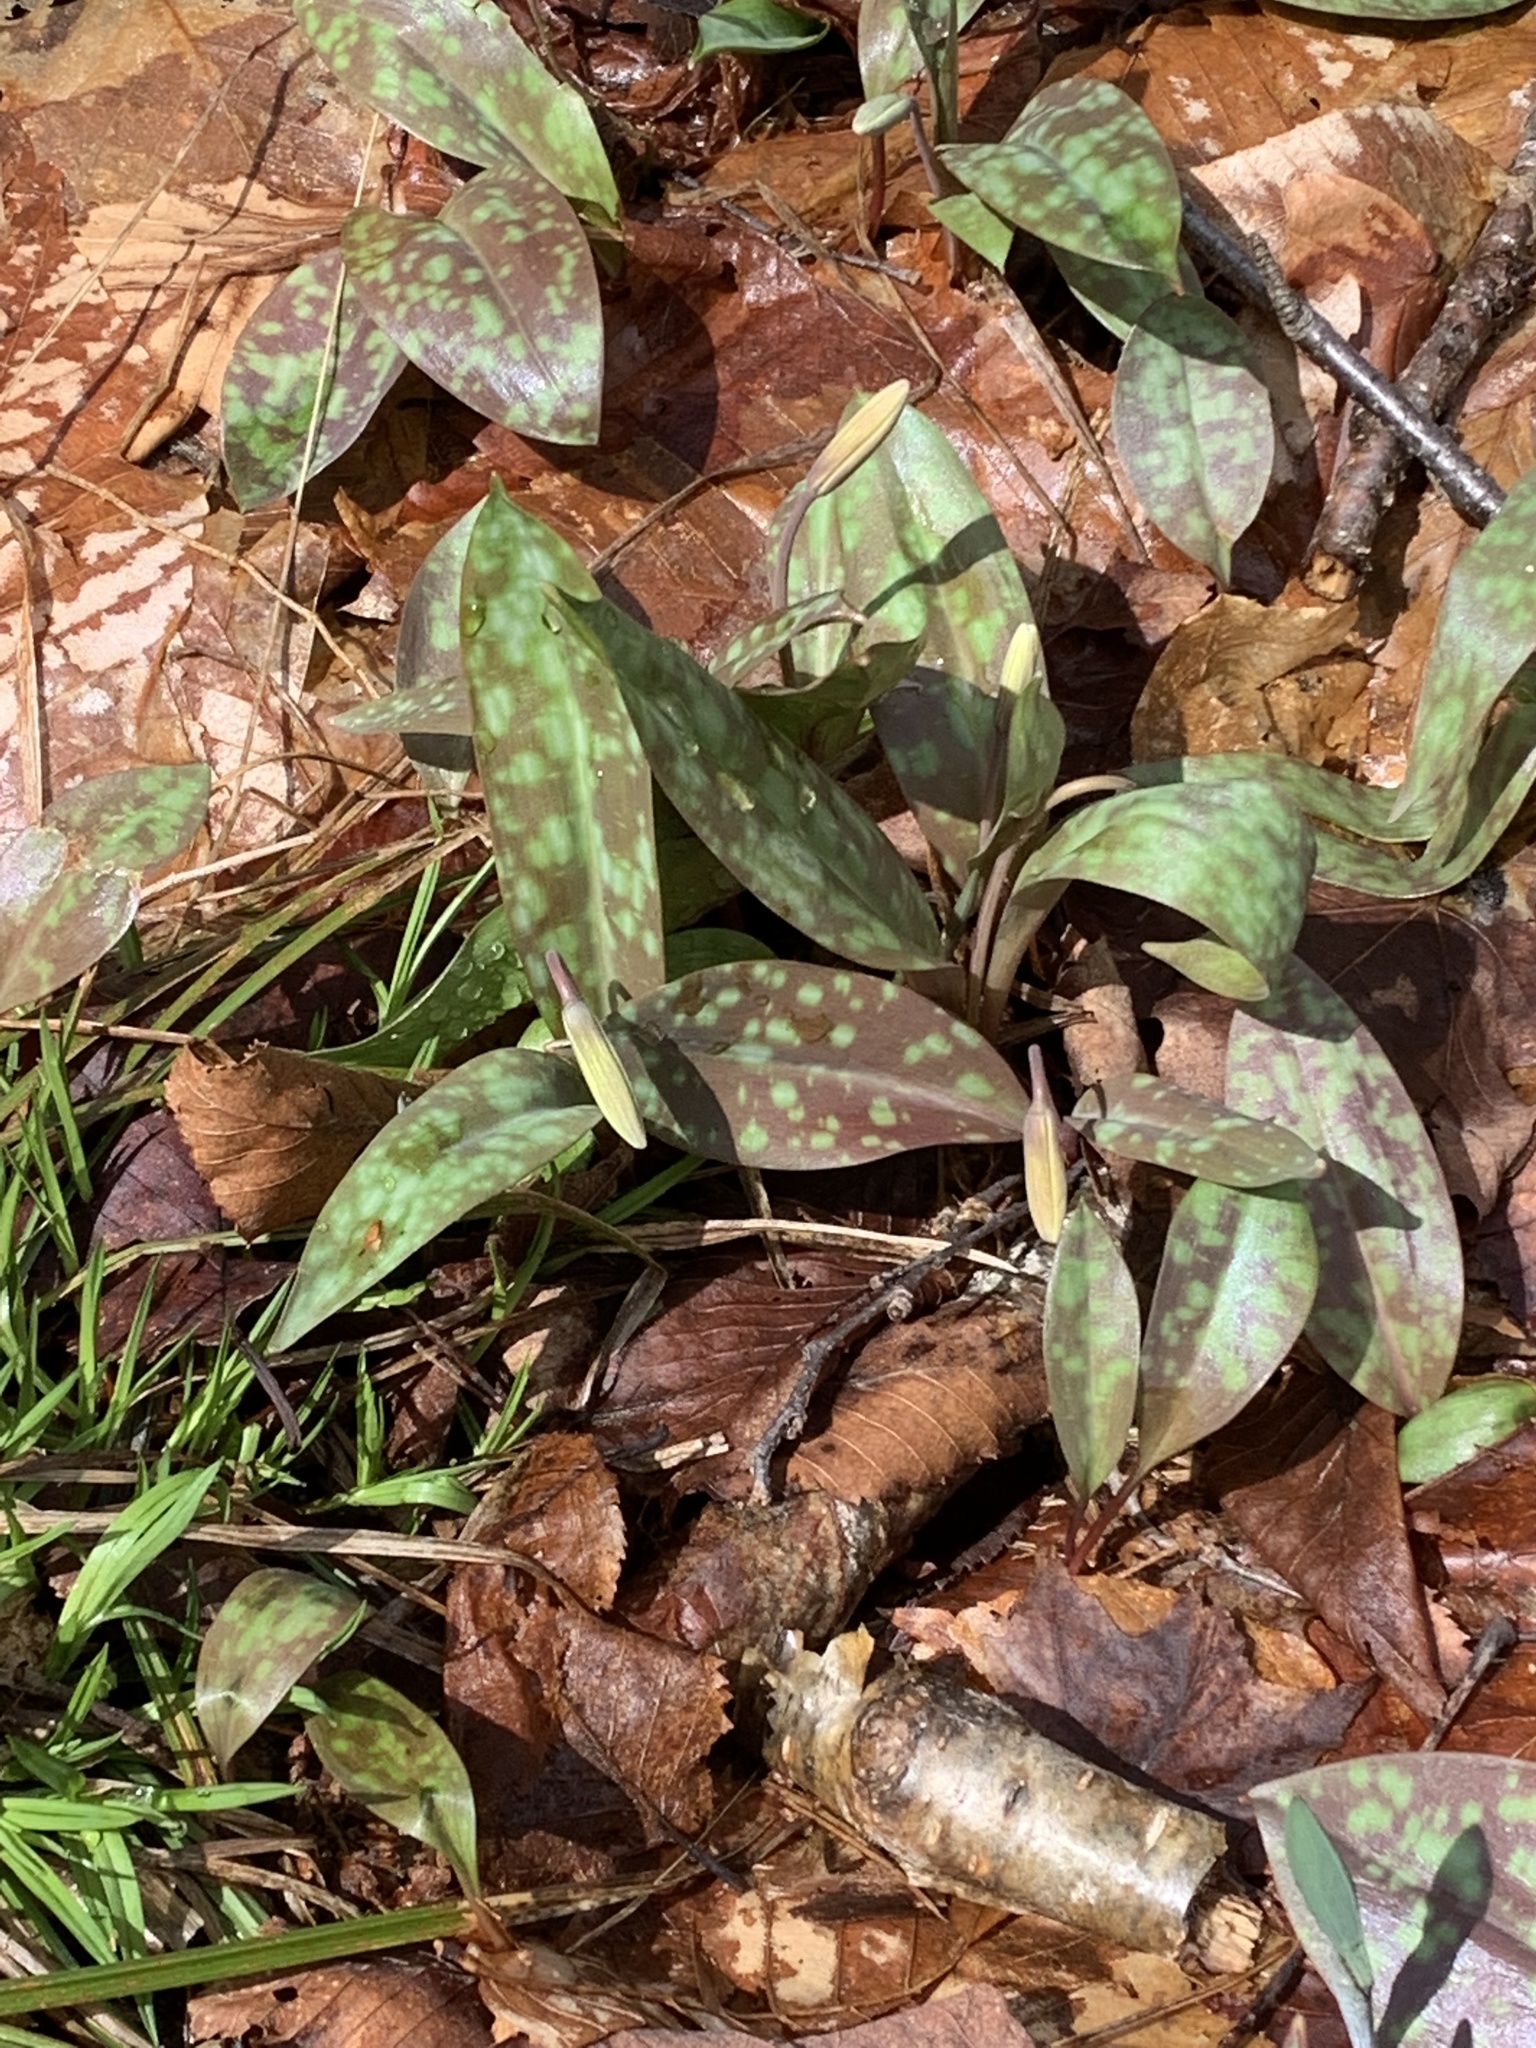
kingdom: Plantae
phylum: Tracheophyta
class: Liliopsida
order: Liliales
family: Liliaceae
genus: Erythronium
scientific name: Erythronium americanum
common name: Yellow adder's-tongue
